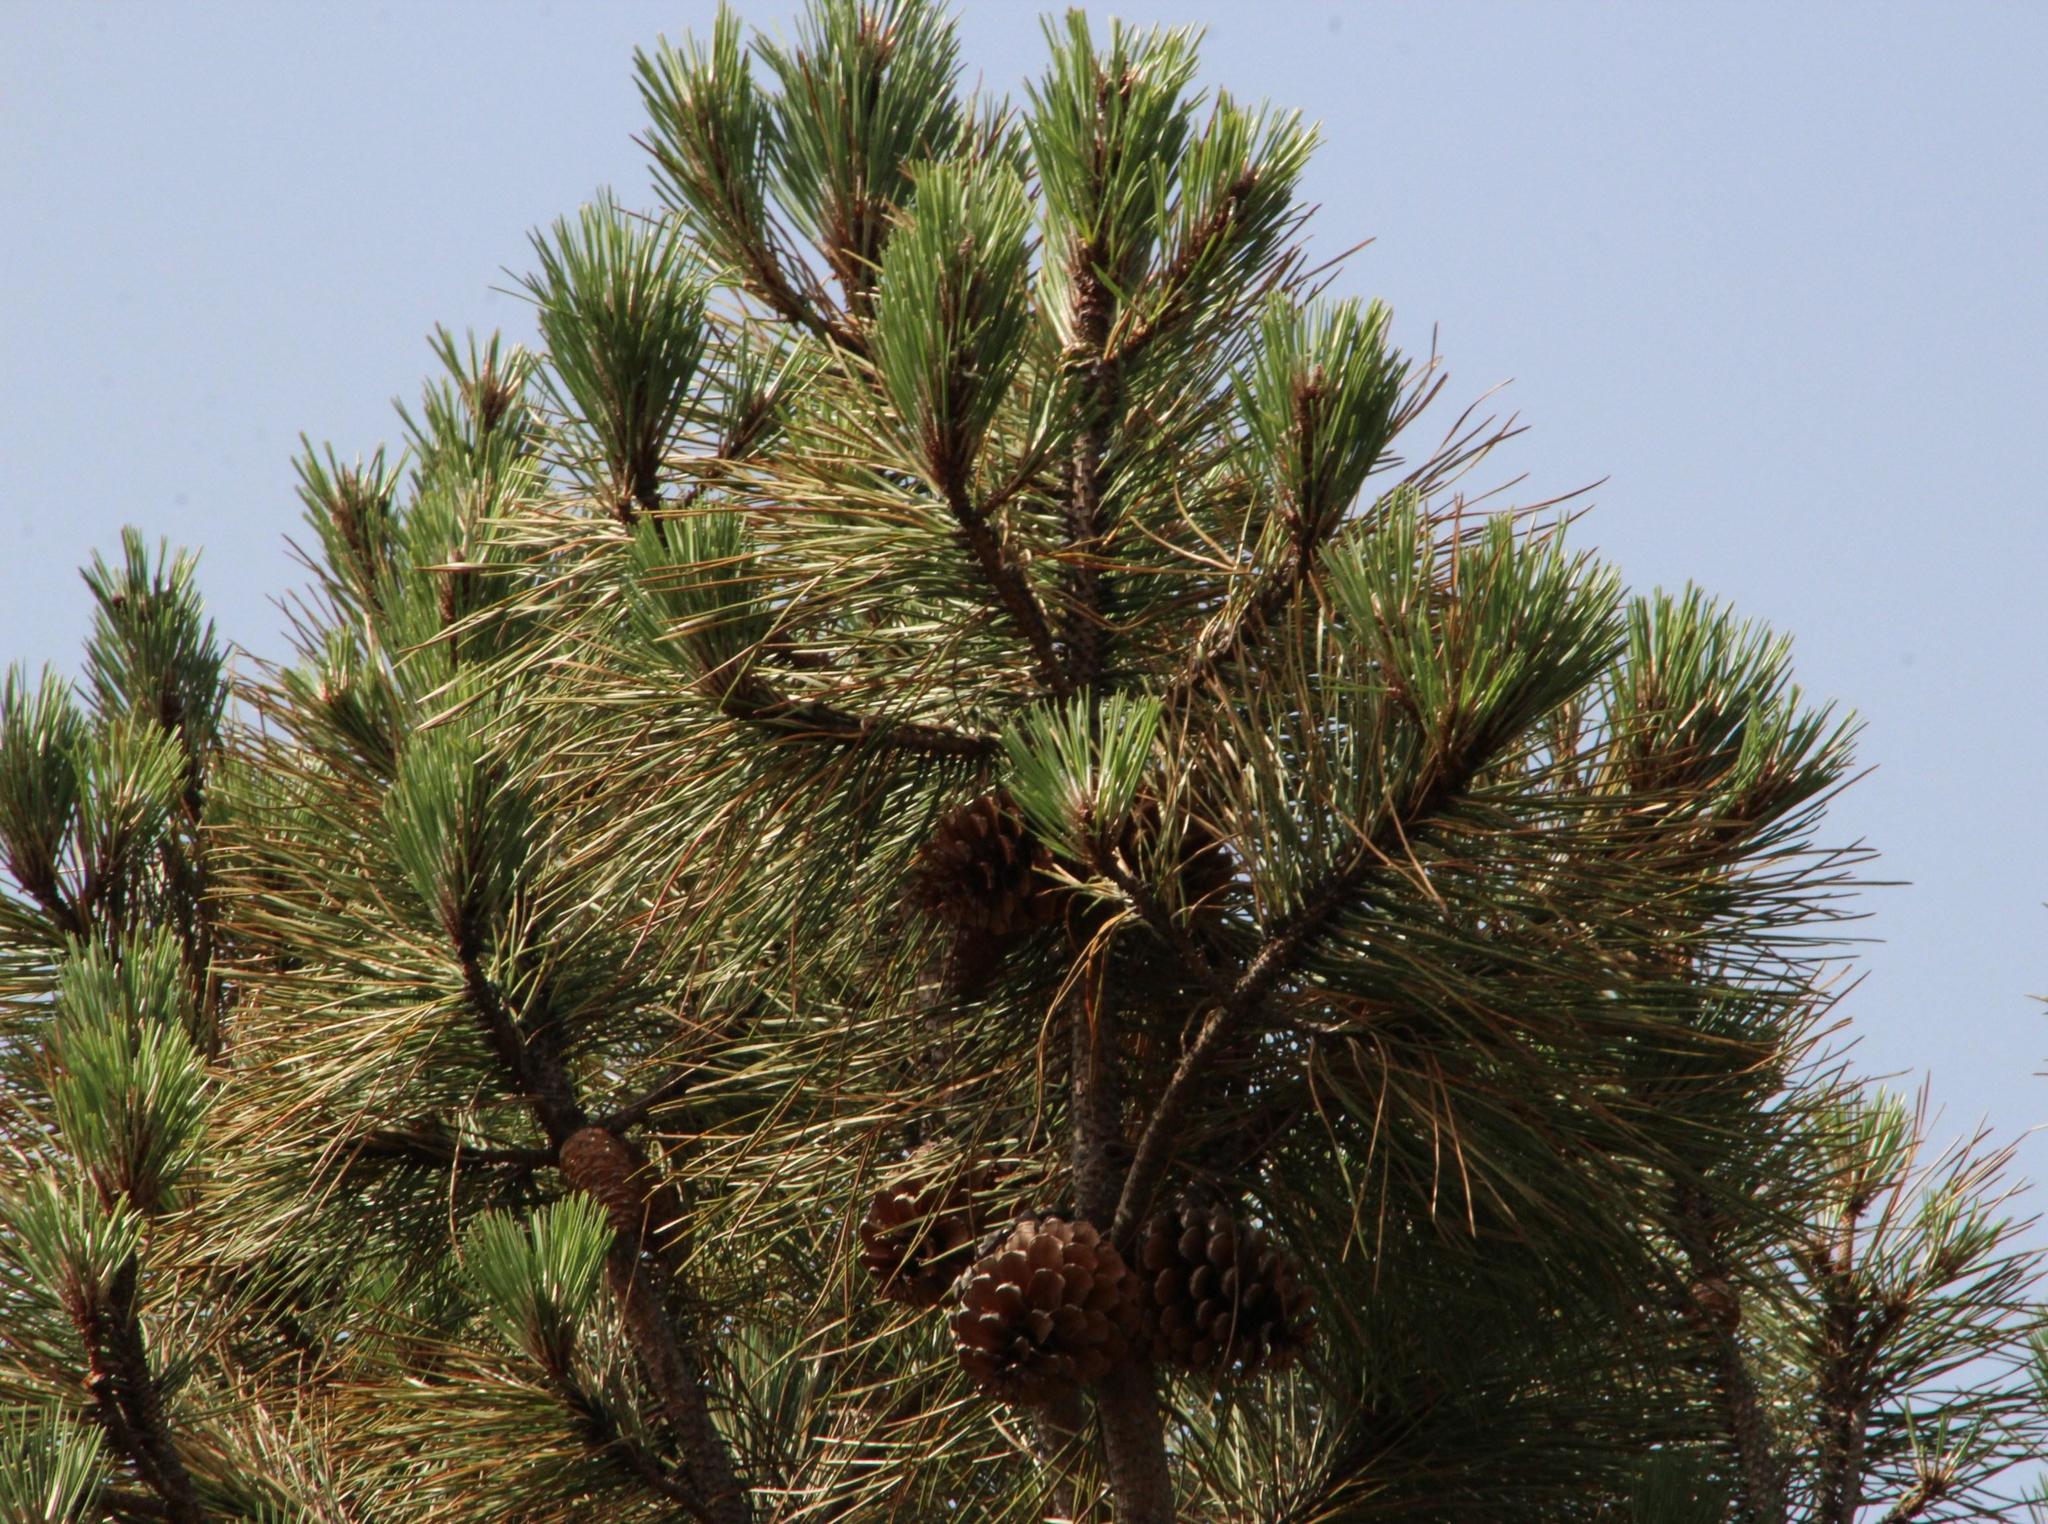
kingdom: Plantae
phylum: Tracheophyta
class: Pinopsida
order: Pinales
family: Pinaceae
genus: Pinus
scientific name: Pinus pinaster
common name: Maritime pine
